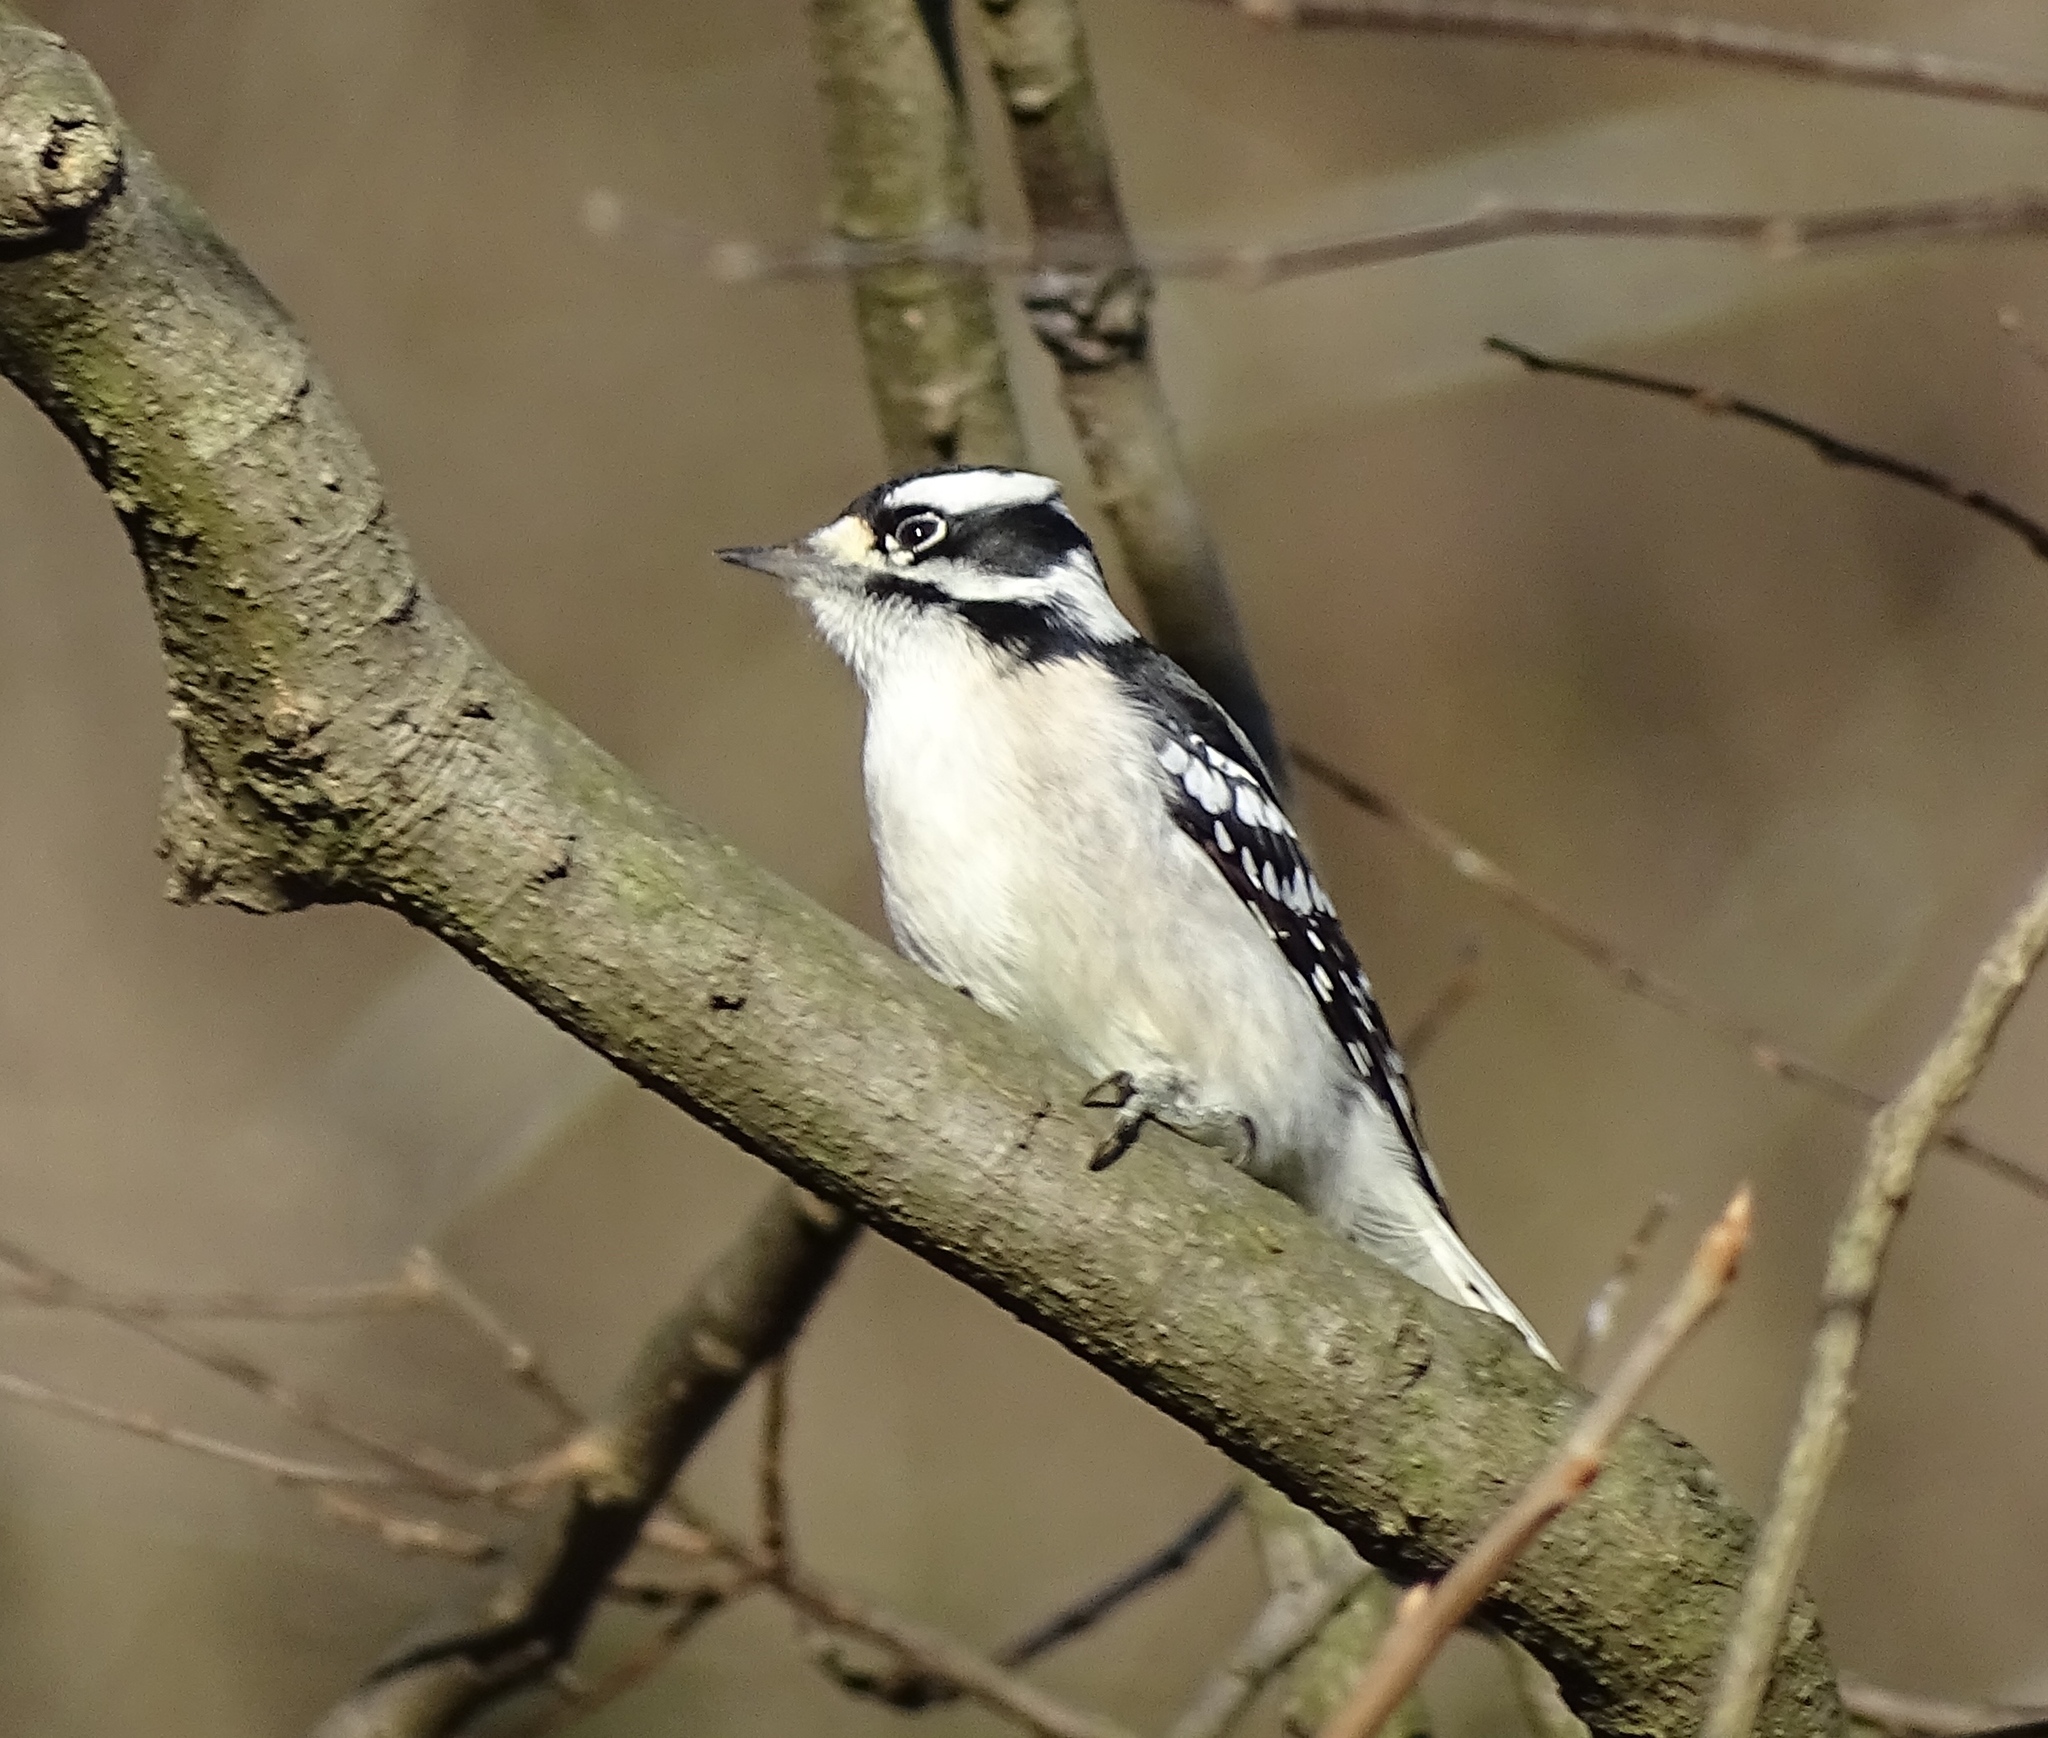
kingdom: Animalia
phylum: Chordata
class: Aves
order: Piciformes
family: Picidae
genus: Dryobates
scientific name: Dryobates pubescens
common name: Downy woodpecker
